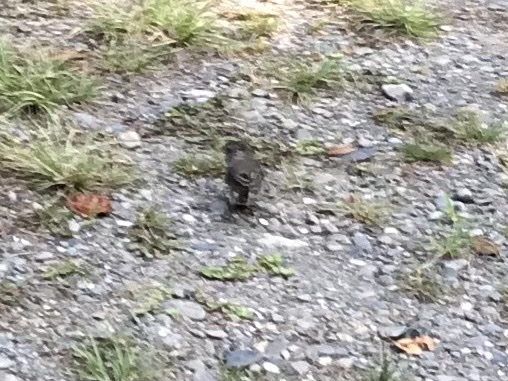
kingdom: Animalia
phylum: Chordata
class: Aves
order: Passeriformes
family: Passerellidae
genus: Junco
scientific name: Junco hyemalis
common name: Dark-eyed junco
